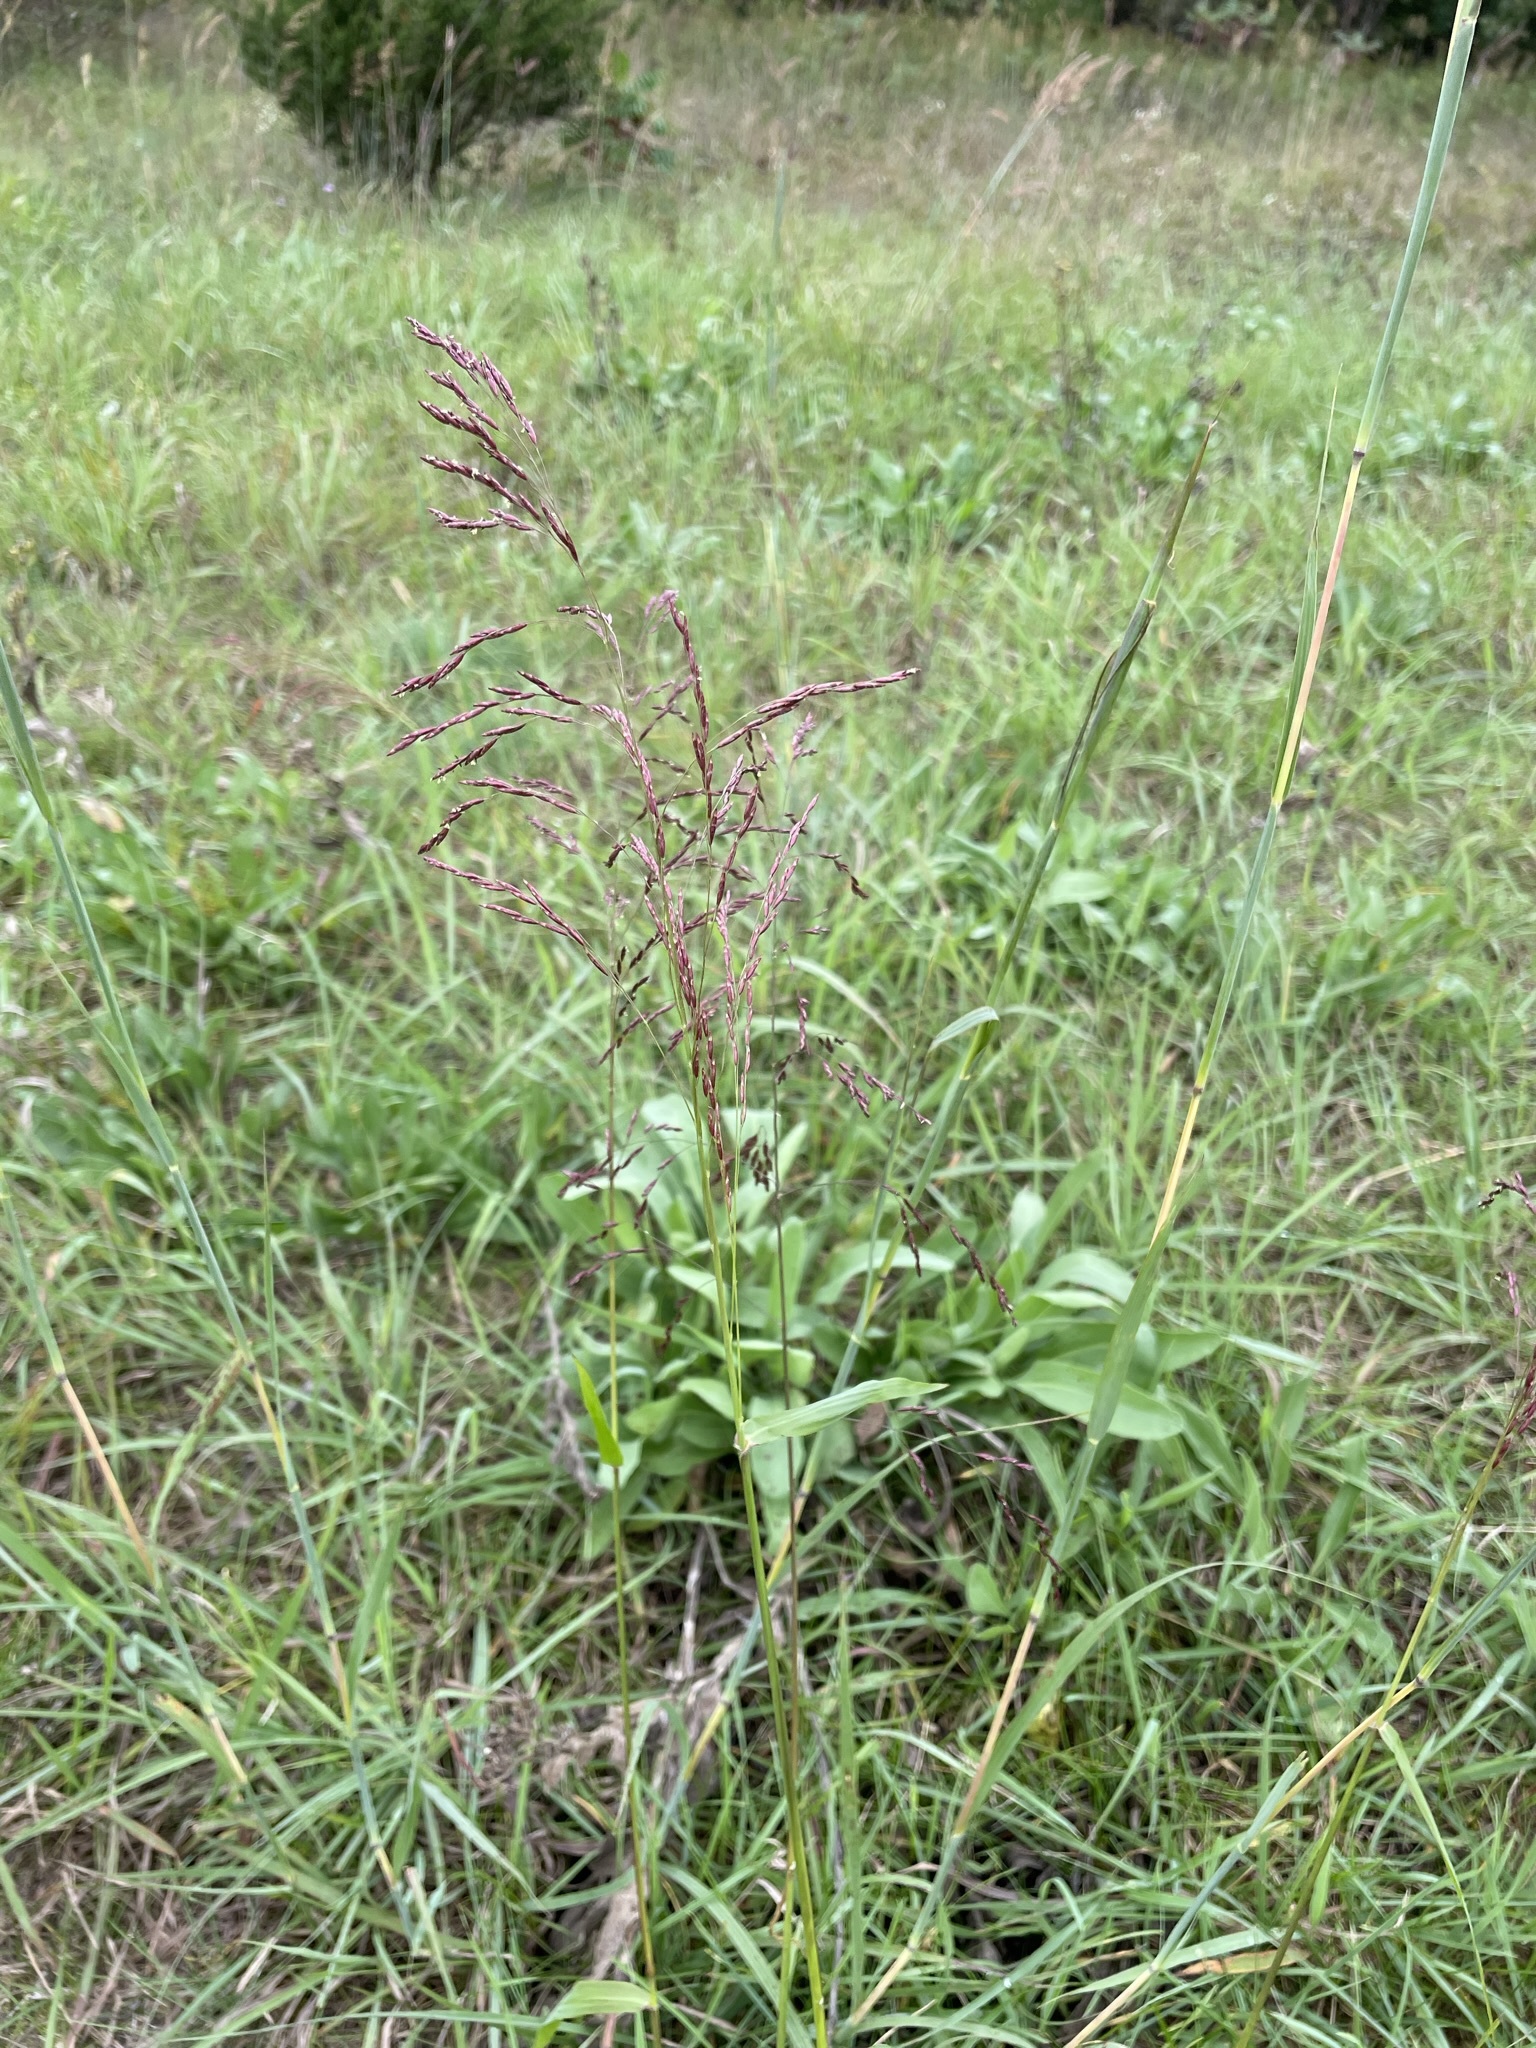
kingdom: Plantae
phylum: Tracheophyta
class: Liliopsida
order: Poales
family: Poaceae
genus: Tridens
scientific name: Tridens flavus
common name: Purpletop
